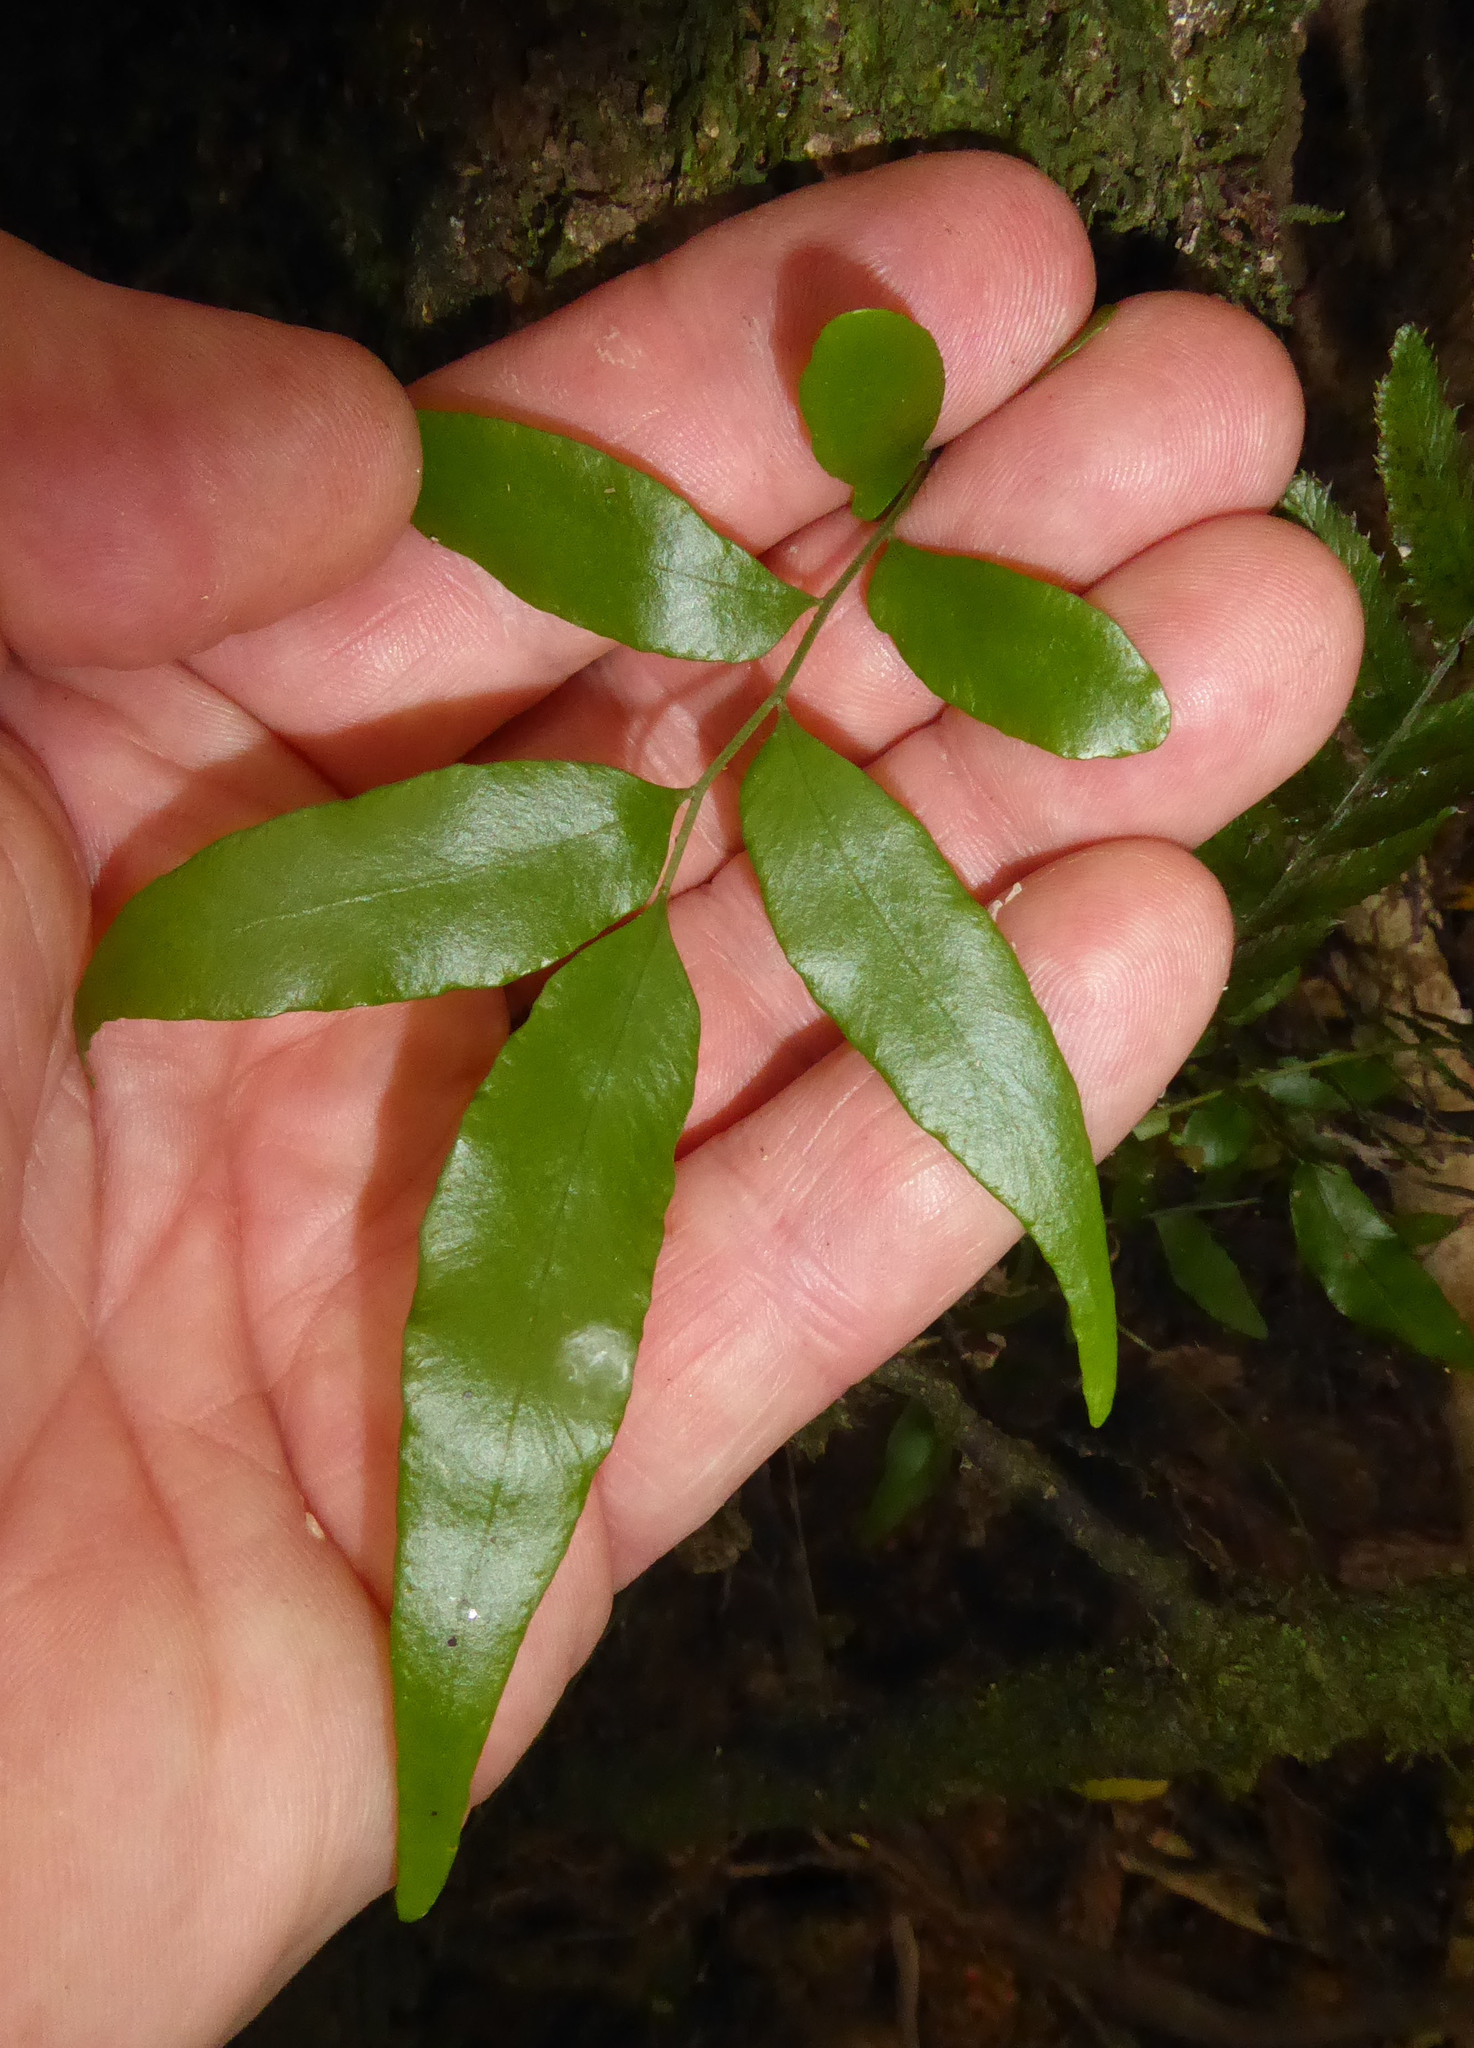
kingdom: Plantae
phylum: Tracheophyta
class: Polypodiopsida
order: Polypodiales
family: Tectariaceae
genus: Arthropteris
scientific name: Arthropteris tenella
